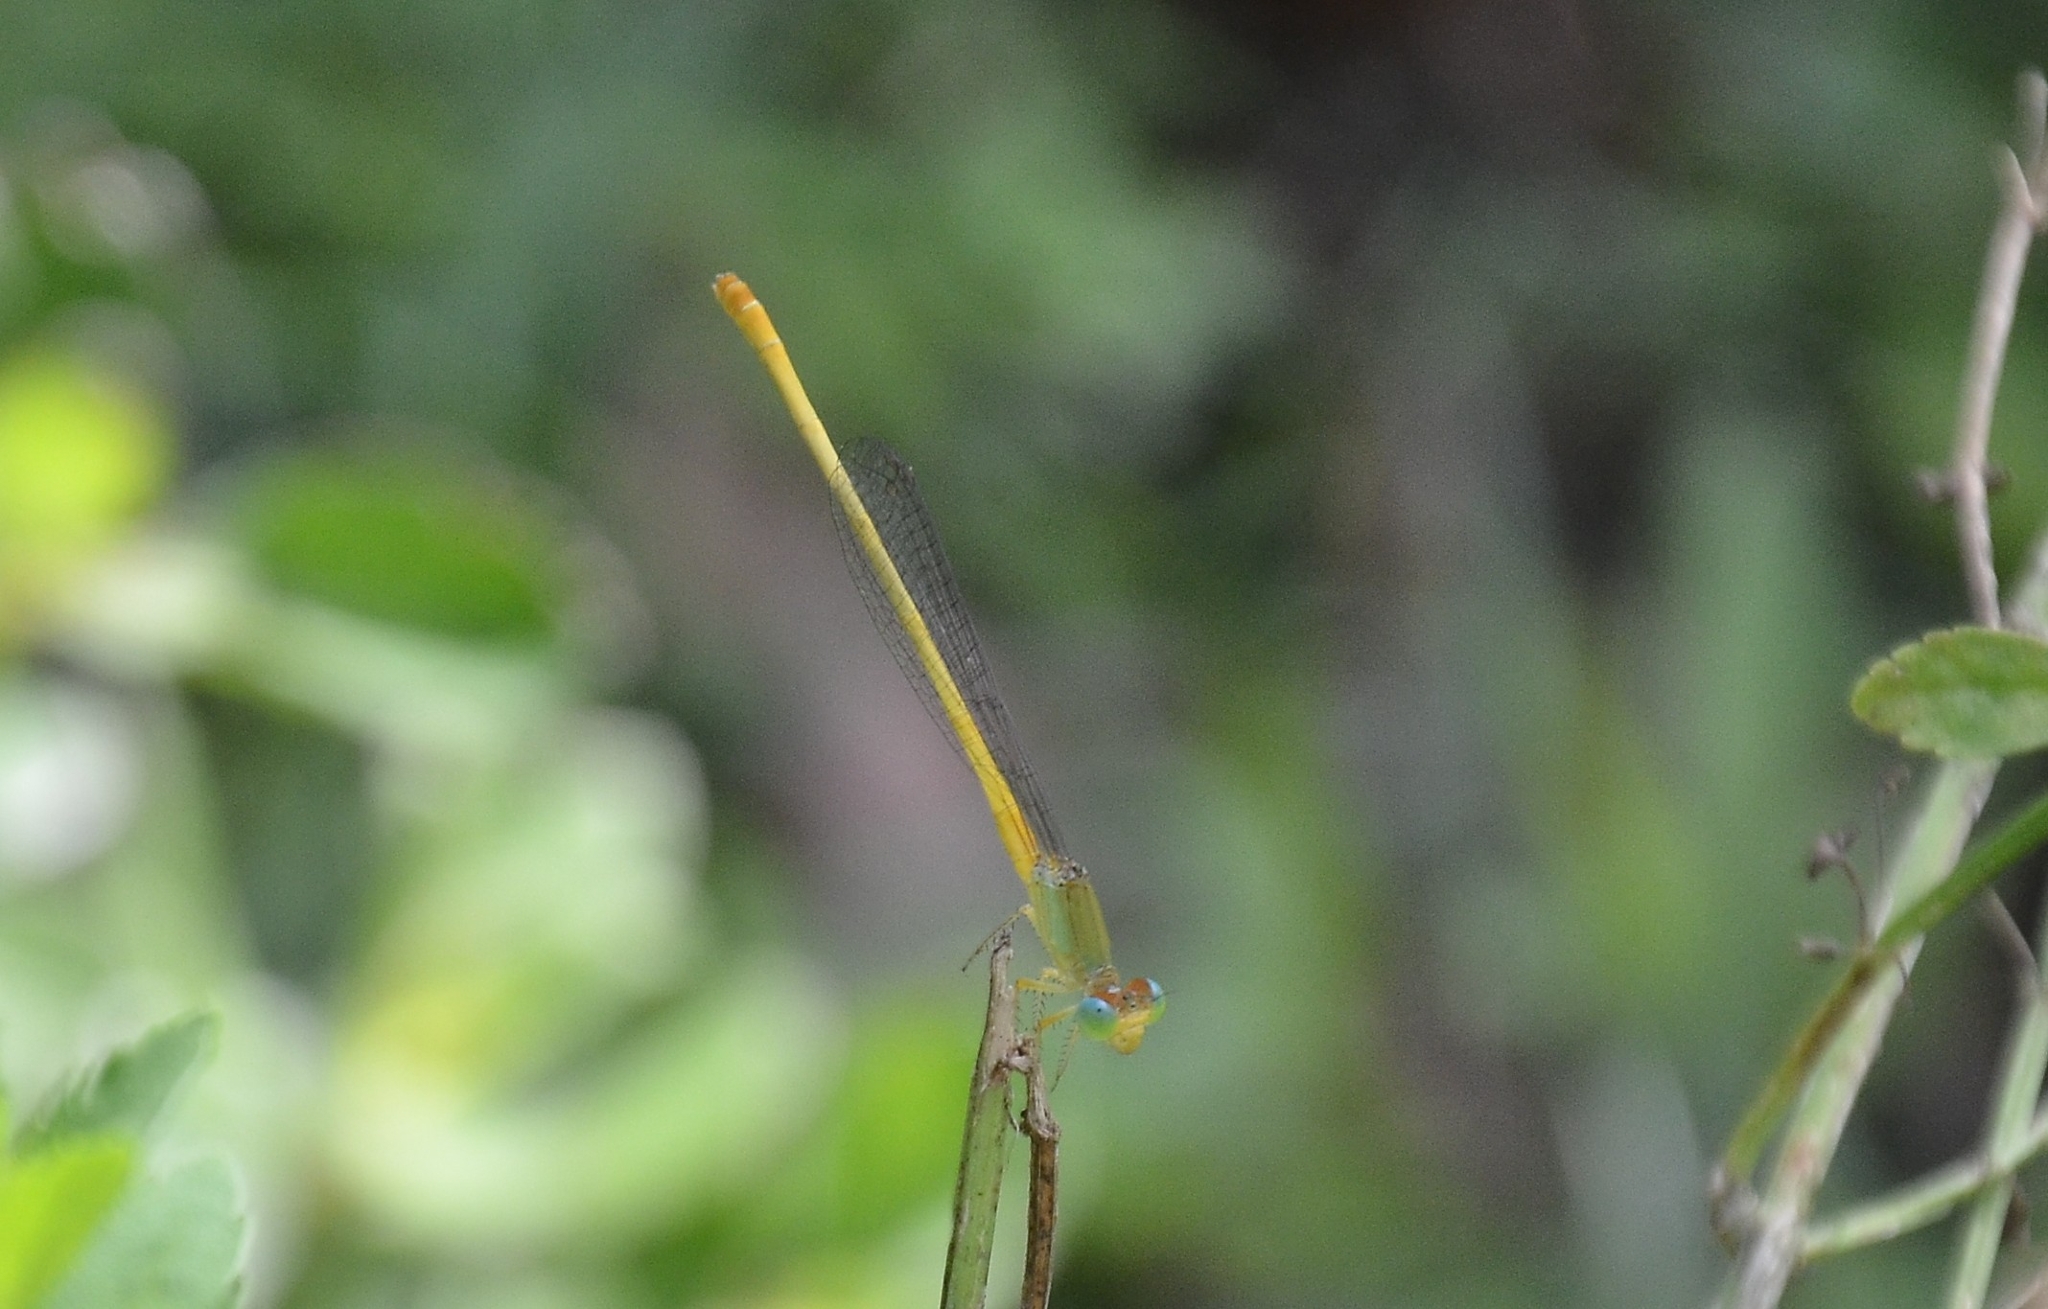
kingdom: Animalia
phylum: Arthropoda
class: Insecta
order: Odonata
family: Coenagrionidae
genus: Ceriagrion
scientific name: Ceriagrion coromandelianum
